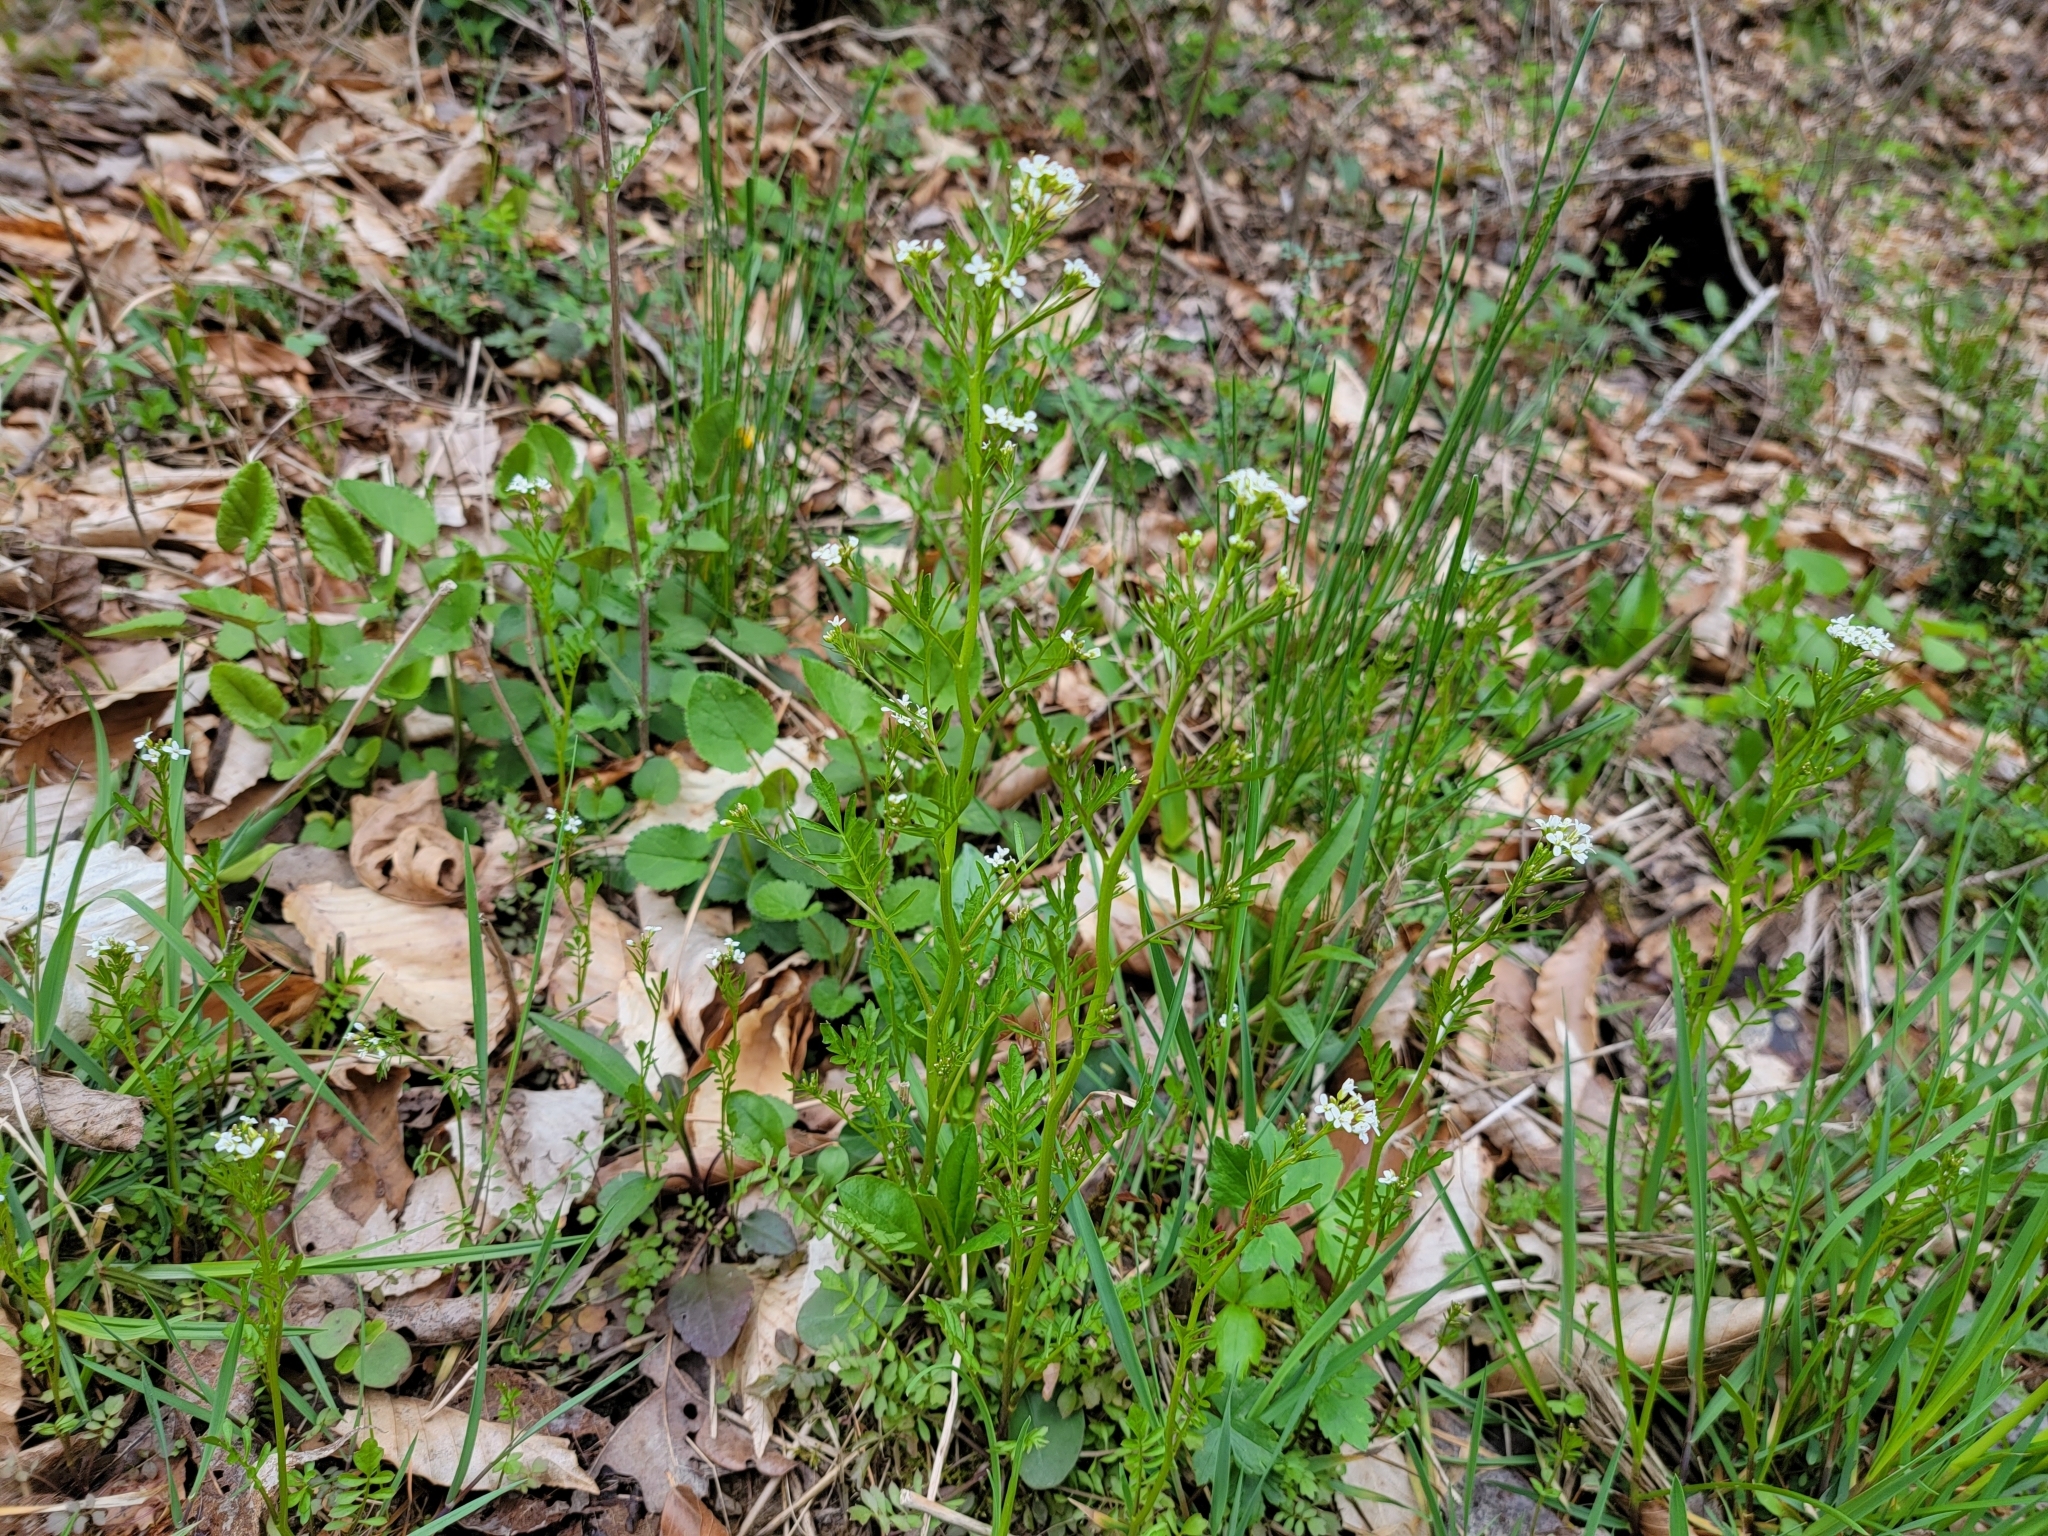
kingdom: Plantae
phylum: Tracheophyta
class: Magnoliopsida
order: Brassicales
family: Brassicaceae
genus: Cardamine
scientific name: Cardamine pensylvanica
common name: Pennsylvania bittercress
